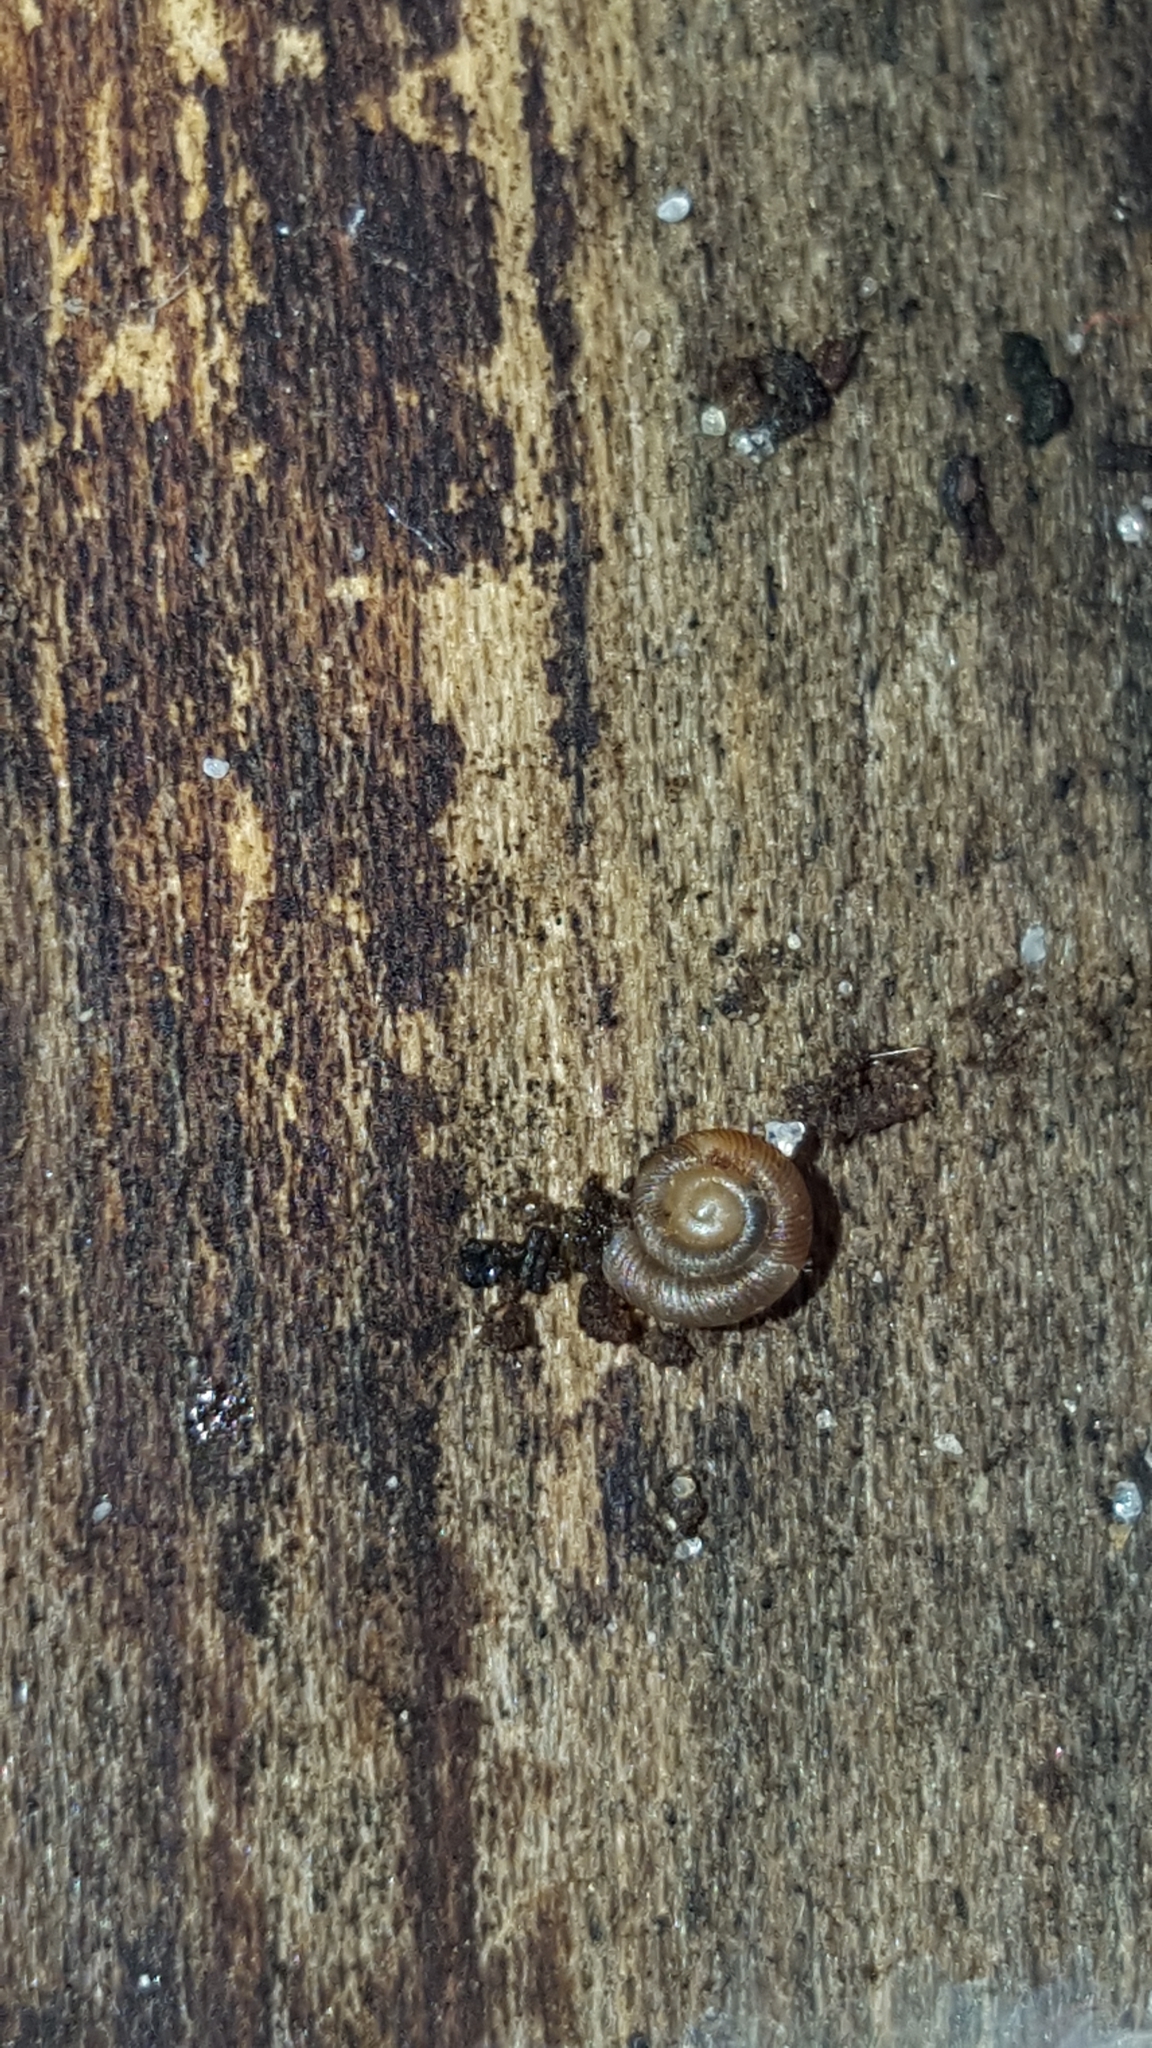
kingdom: Animalia
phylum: Mollusca
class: Gastropoda
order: Stylommatophora
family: Discidae
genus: Discus
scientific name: Discus rotundatus
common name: Rounded snail
